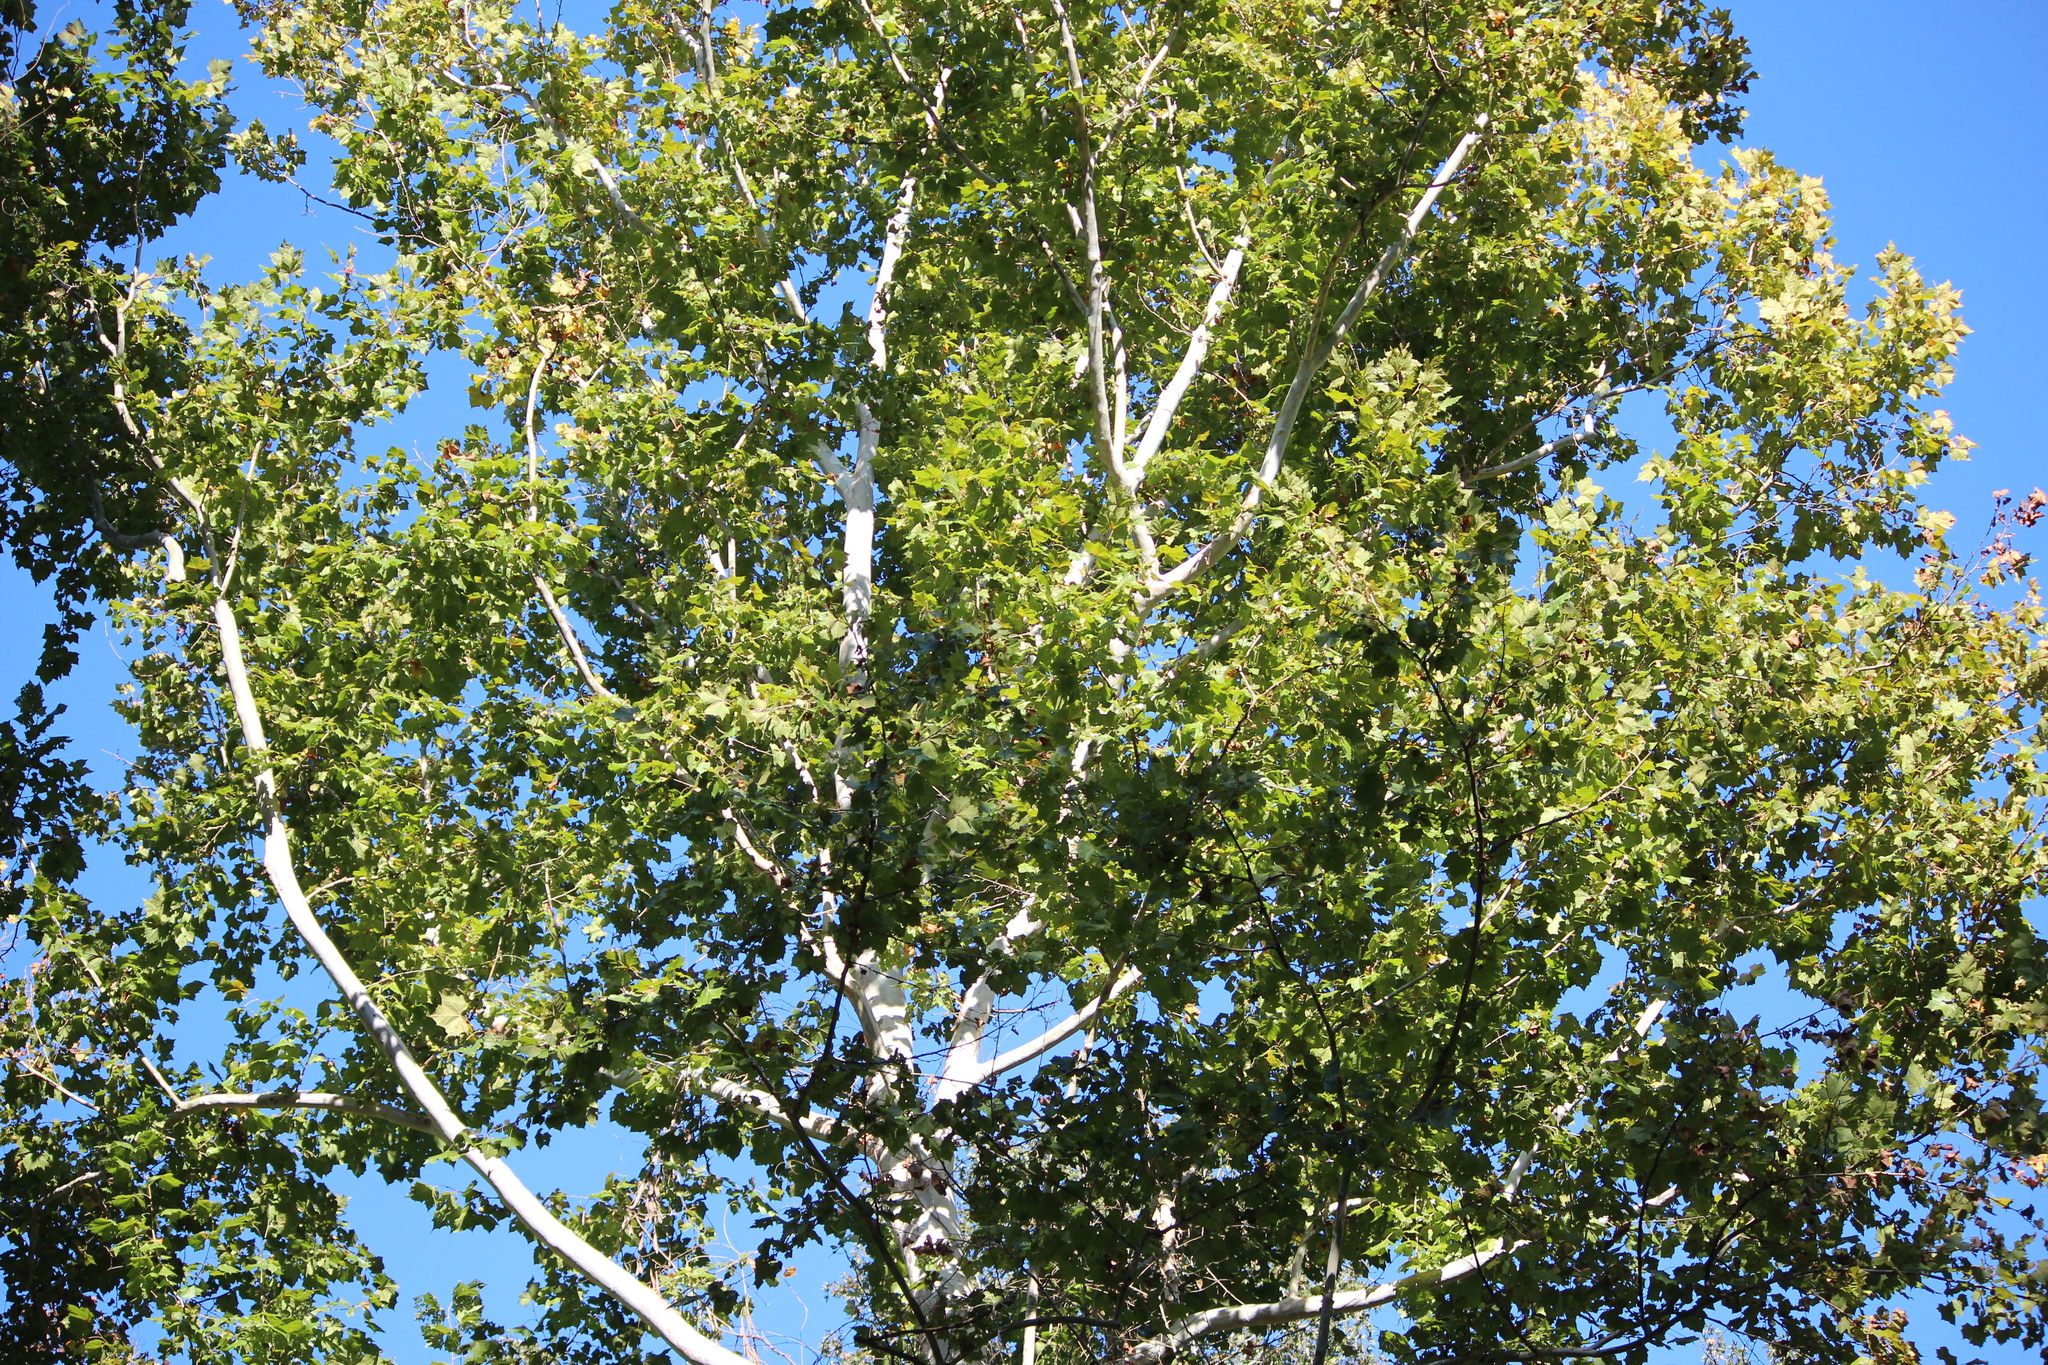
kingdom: Plantae
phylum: Tracheophyta
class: Magnoliopsida
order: Proteales
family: Platanaceae
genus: Platanus
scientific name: Platanus occidentalis
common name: American sycamore
